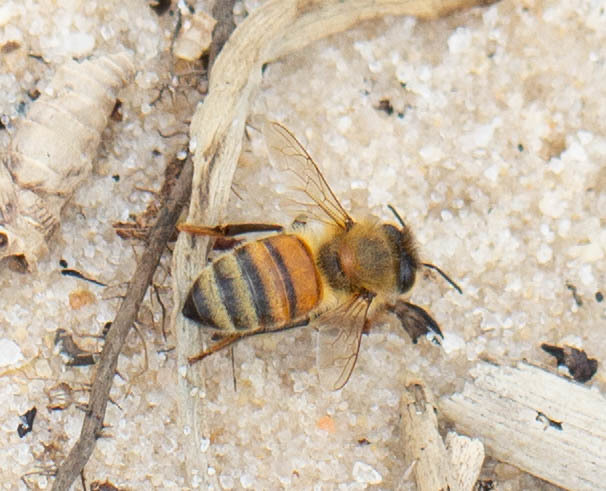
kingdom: Animalia
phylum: Arthropoda
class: Insecta
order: Hymenoptera
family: Apidae
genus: Apis
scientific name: Apis mellifera
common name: Honey bee
